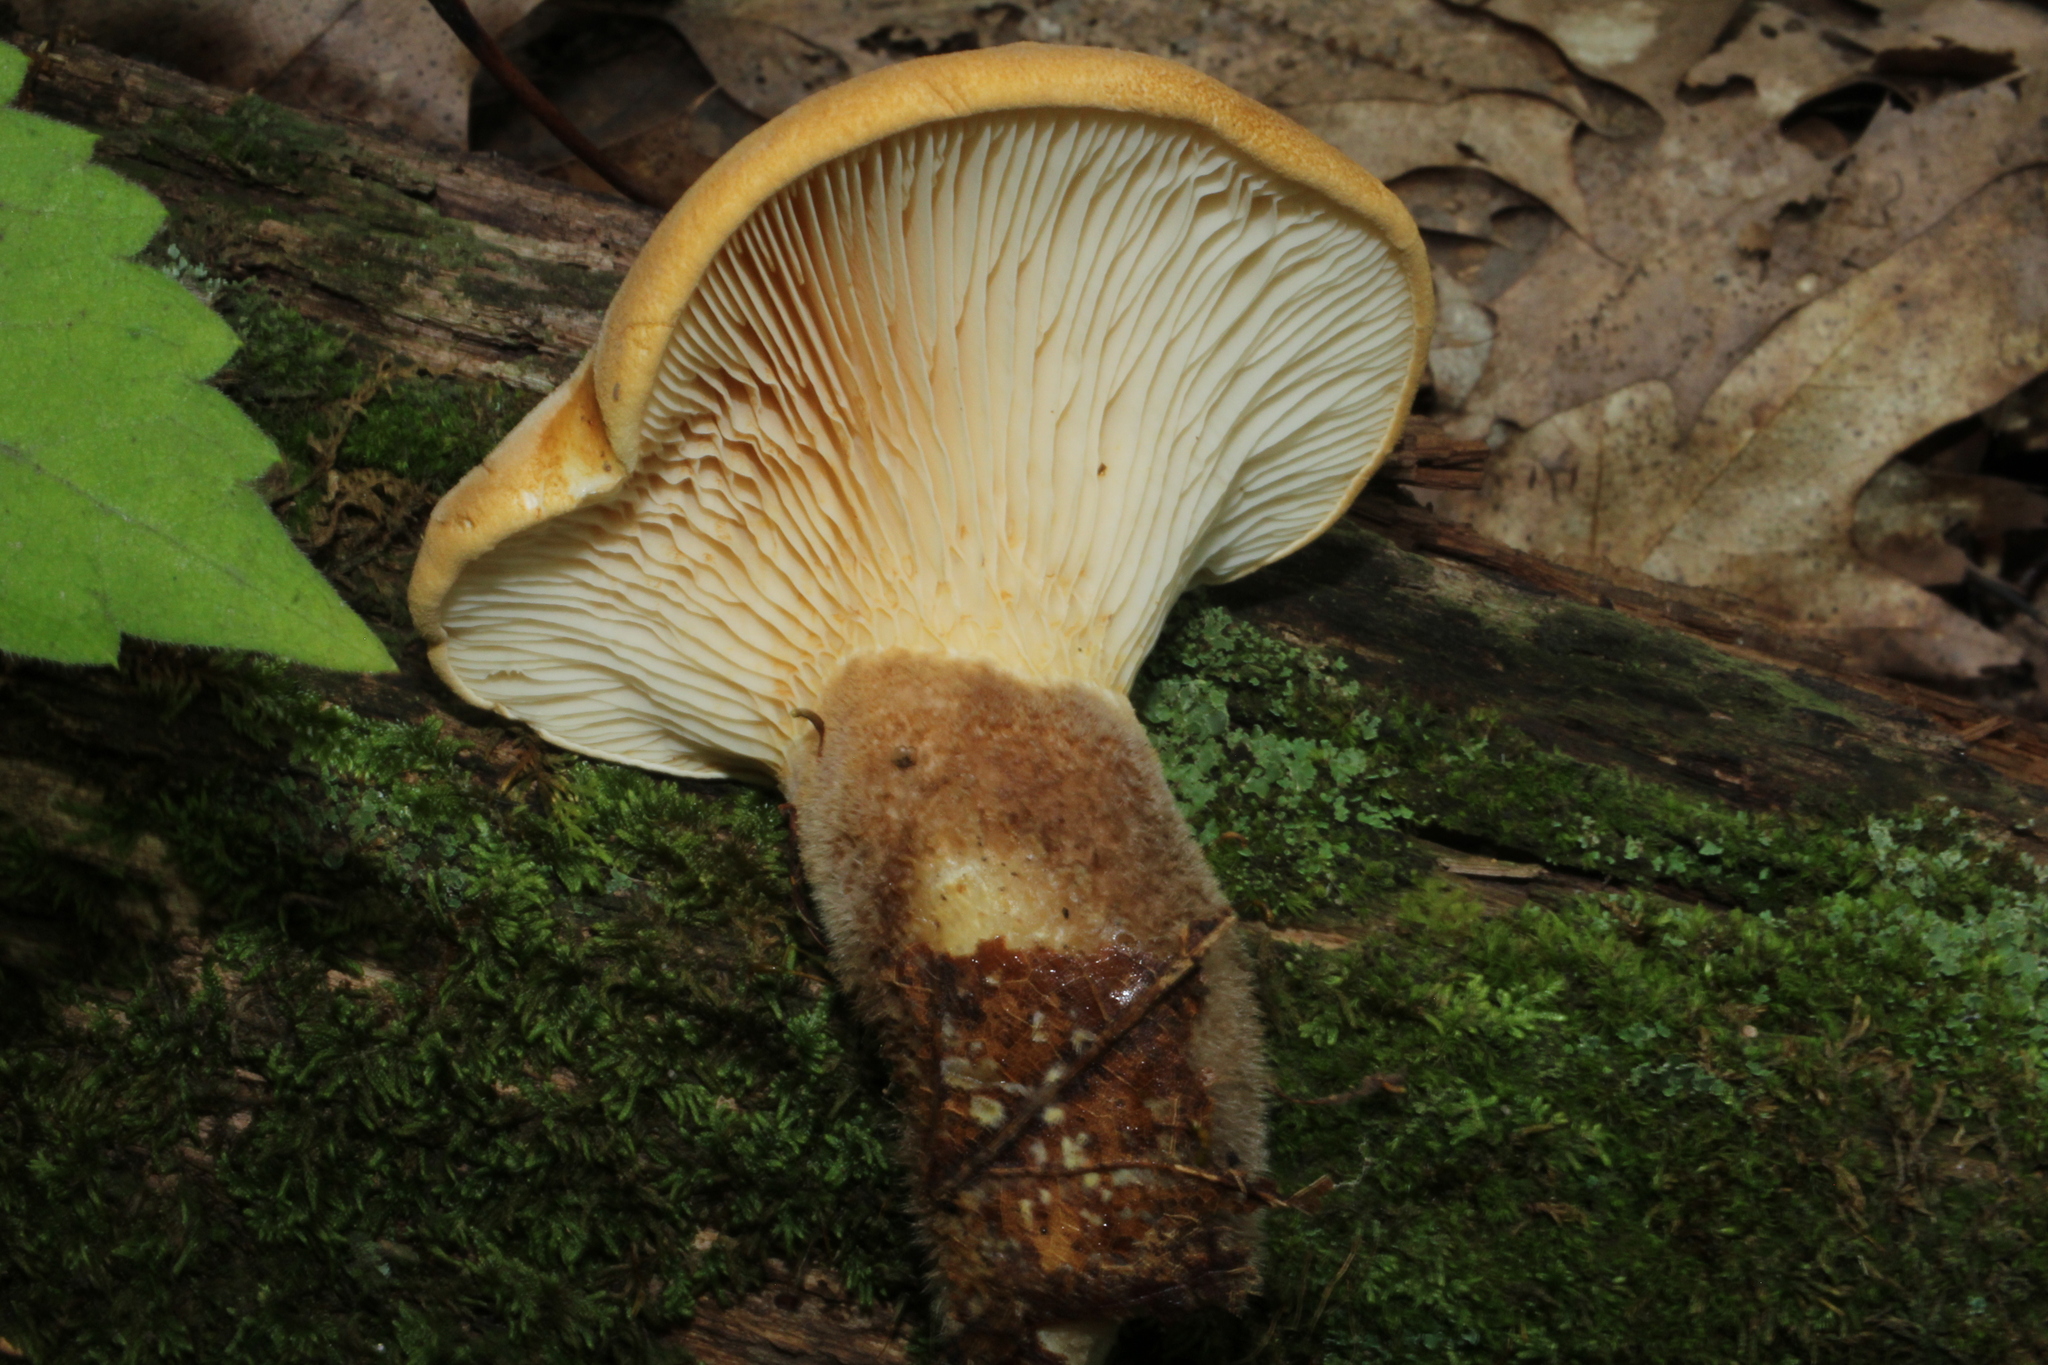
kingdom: Fungi
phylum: Basidiomycota
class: Agaricomycetes
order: Boletales
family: Tapinellaceae
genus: Tapinella
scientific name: Tapinella atrotomentosa
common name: Velvet rollrim
